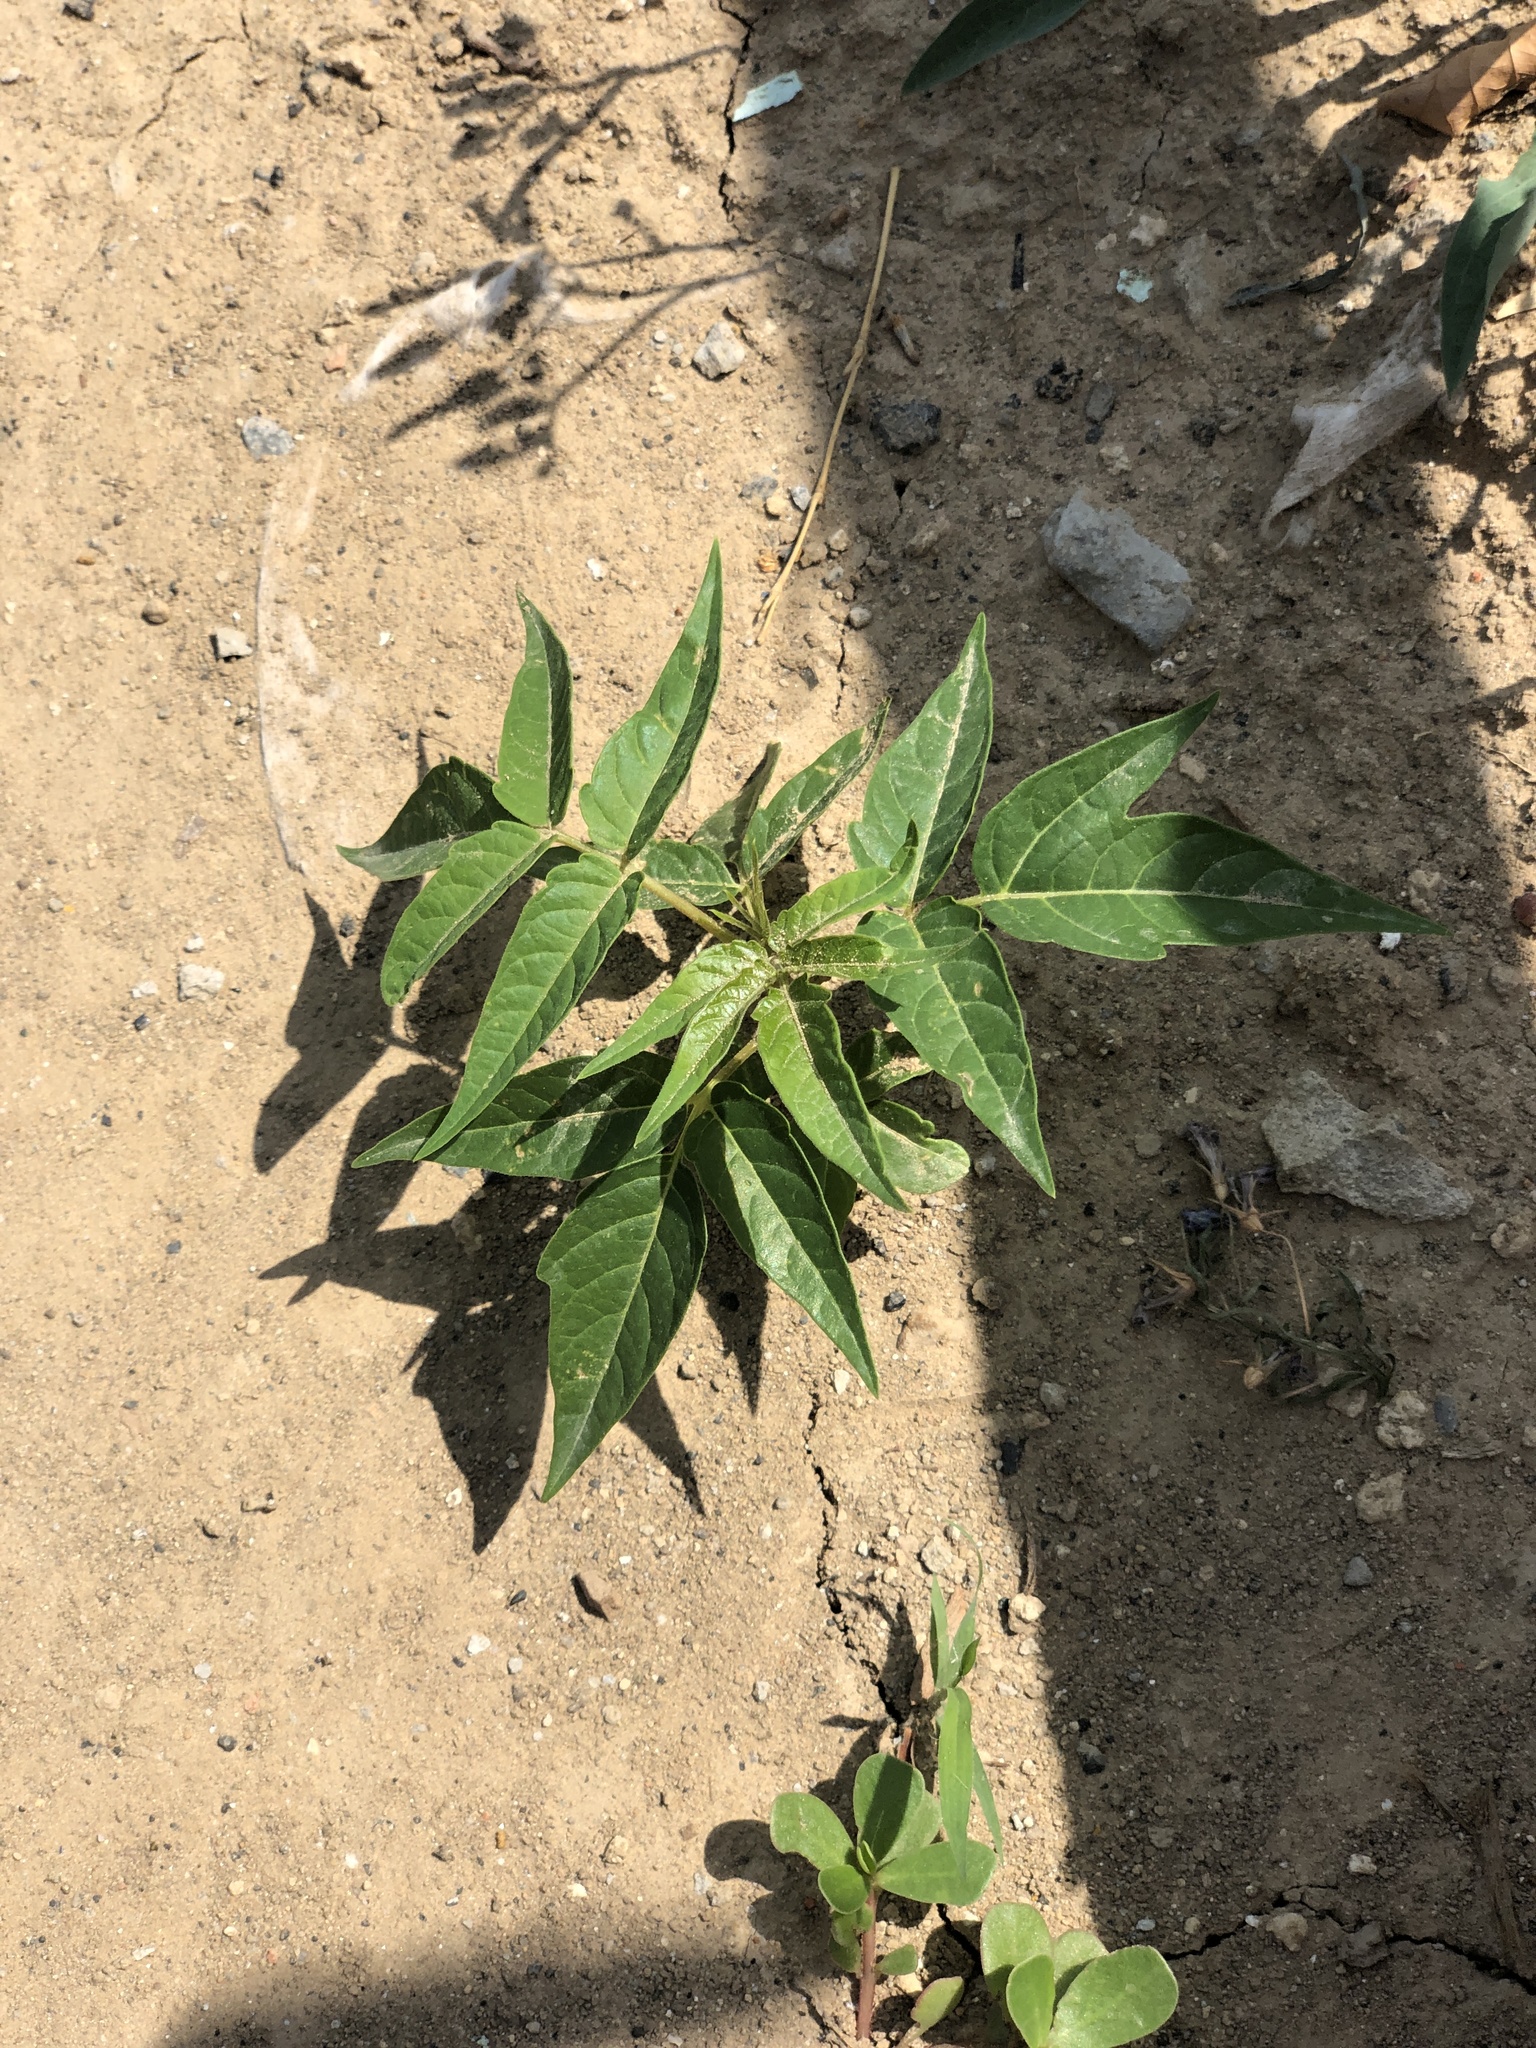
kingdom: Plantae
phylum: Tracheophyta
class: Magnoliopsida
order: Sapindales
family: Simaroubaceae
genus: Ailanthus
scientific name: Ailanthus altissima
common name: Tree-of-heaven
